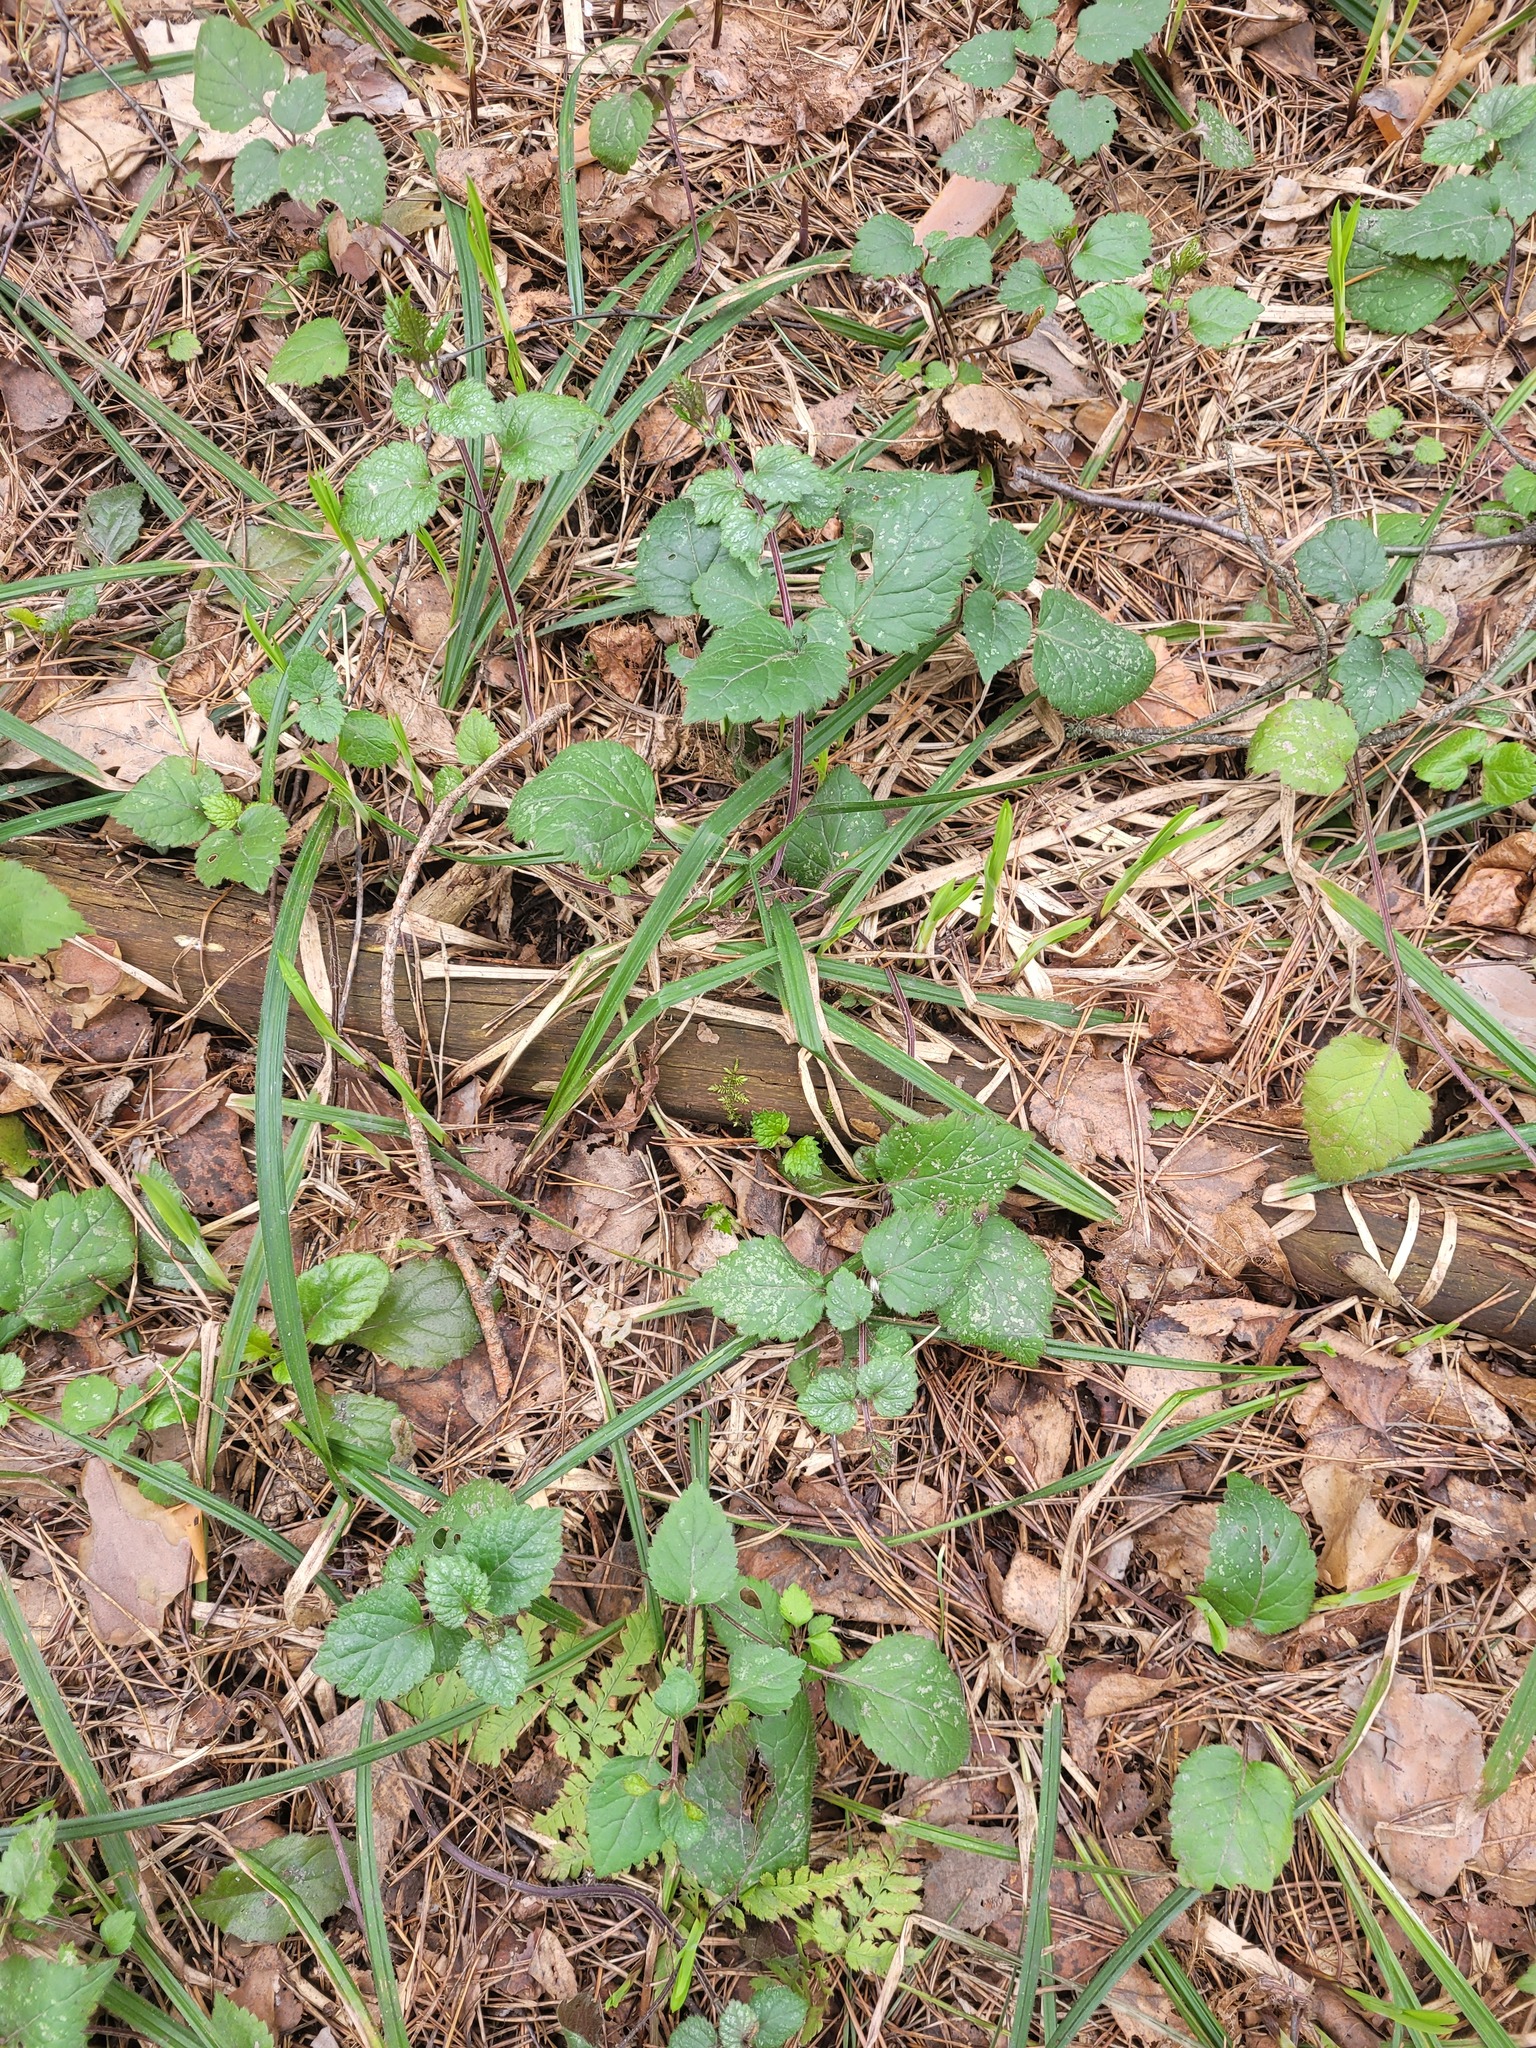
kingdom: Plantae
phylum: Tracheophyta
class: Magnoliopsida
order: Lamiales
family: Lamiaceae
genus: Lamium
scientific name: Lamium galeobdolon
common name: Yellow archangel
